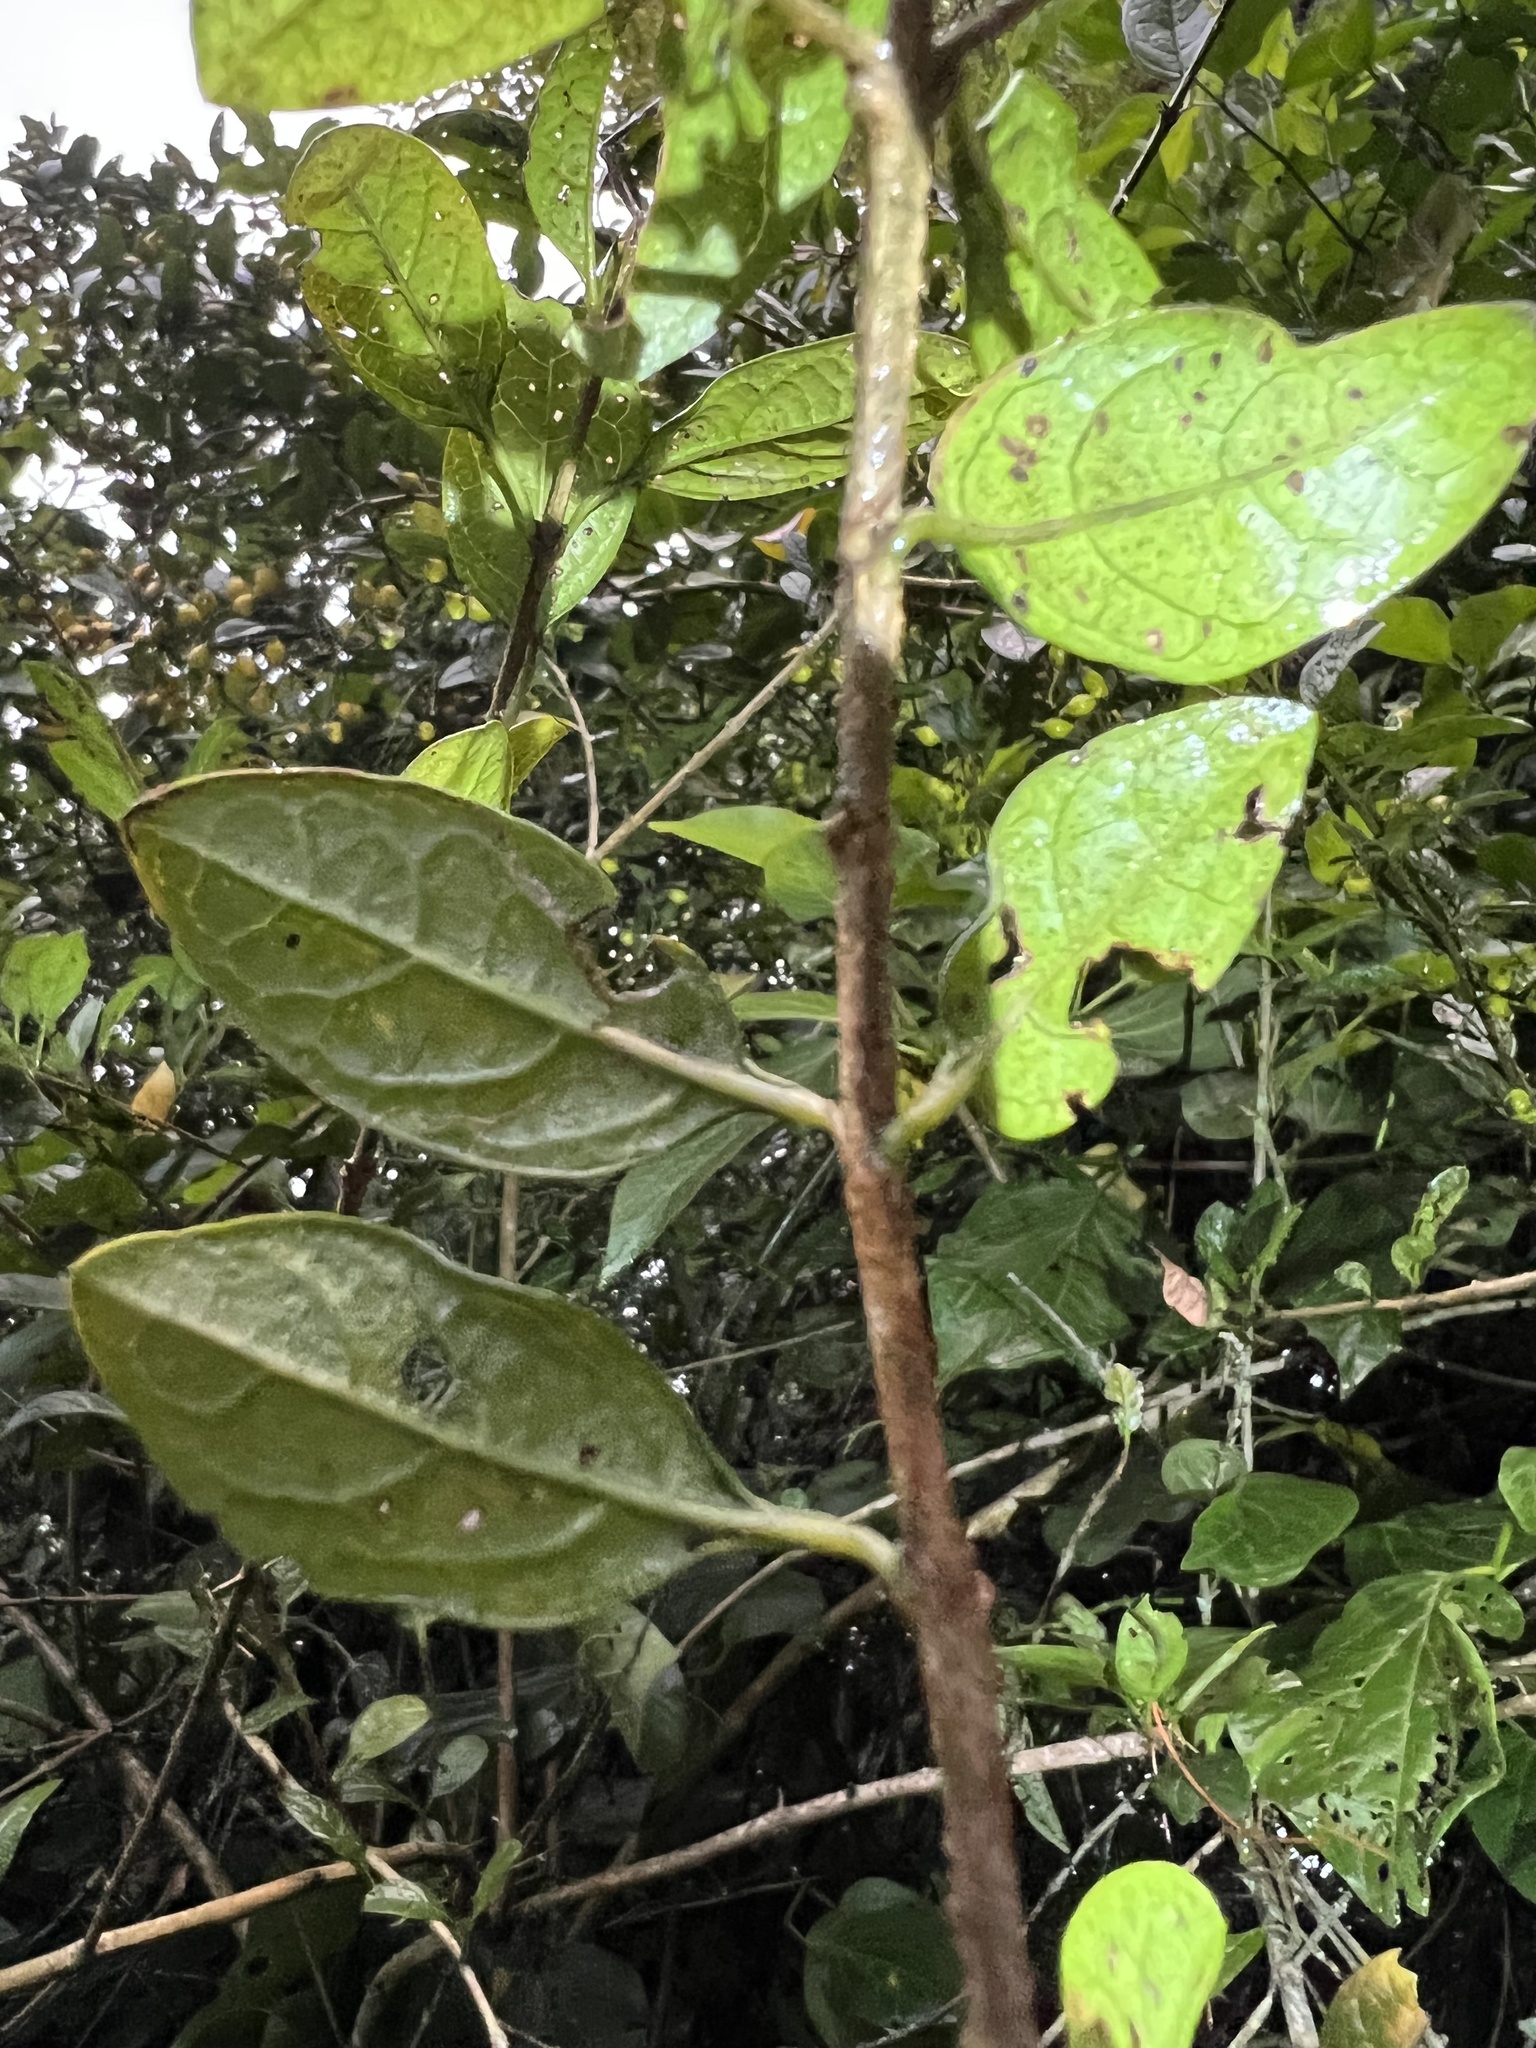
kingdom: Plantae
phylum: Tracheophyta
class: Magnoliopsida
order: Lamiales
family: Verbenaceae
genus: Duranta
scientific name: Duranta mutisii
